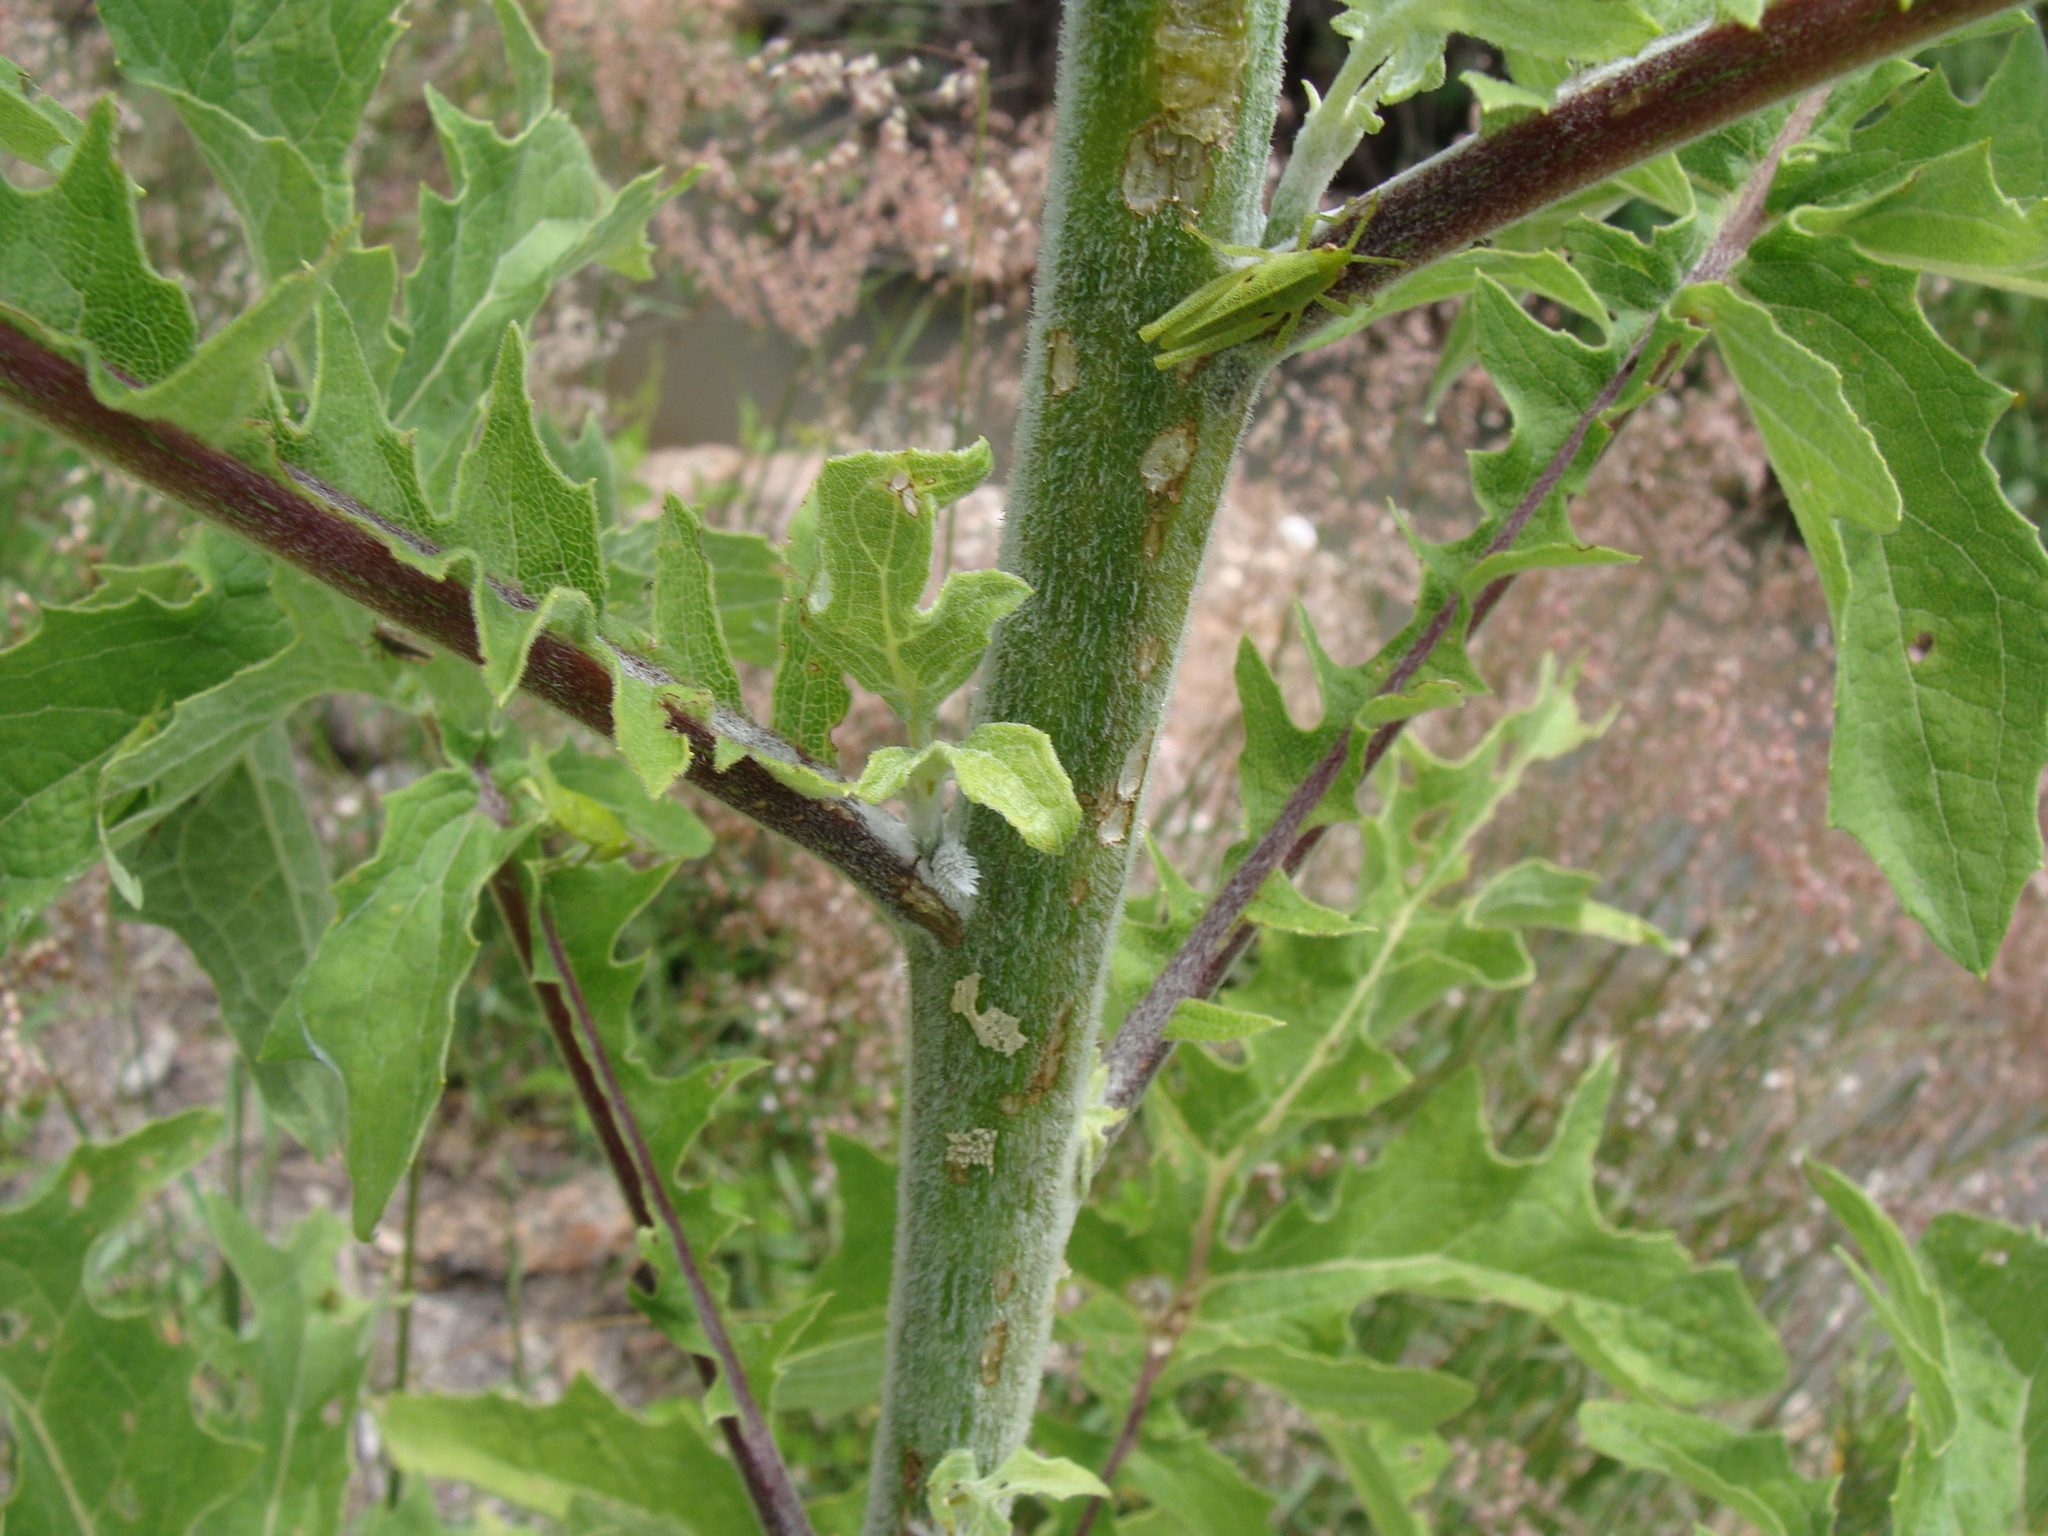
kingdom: Plantae
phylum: Tracheophyta
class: Magnoliopsida
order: Asterales
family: Asteraceae
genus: Roldana
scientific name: Roldana heracleifolia
